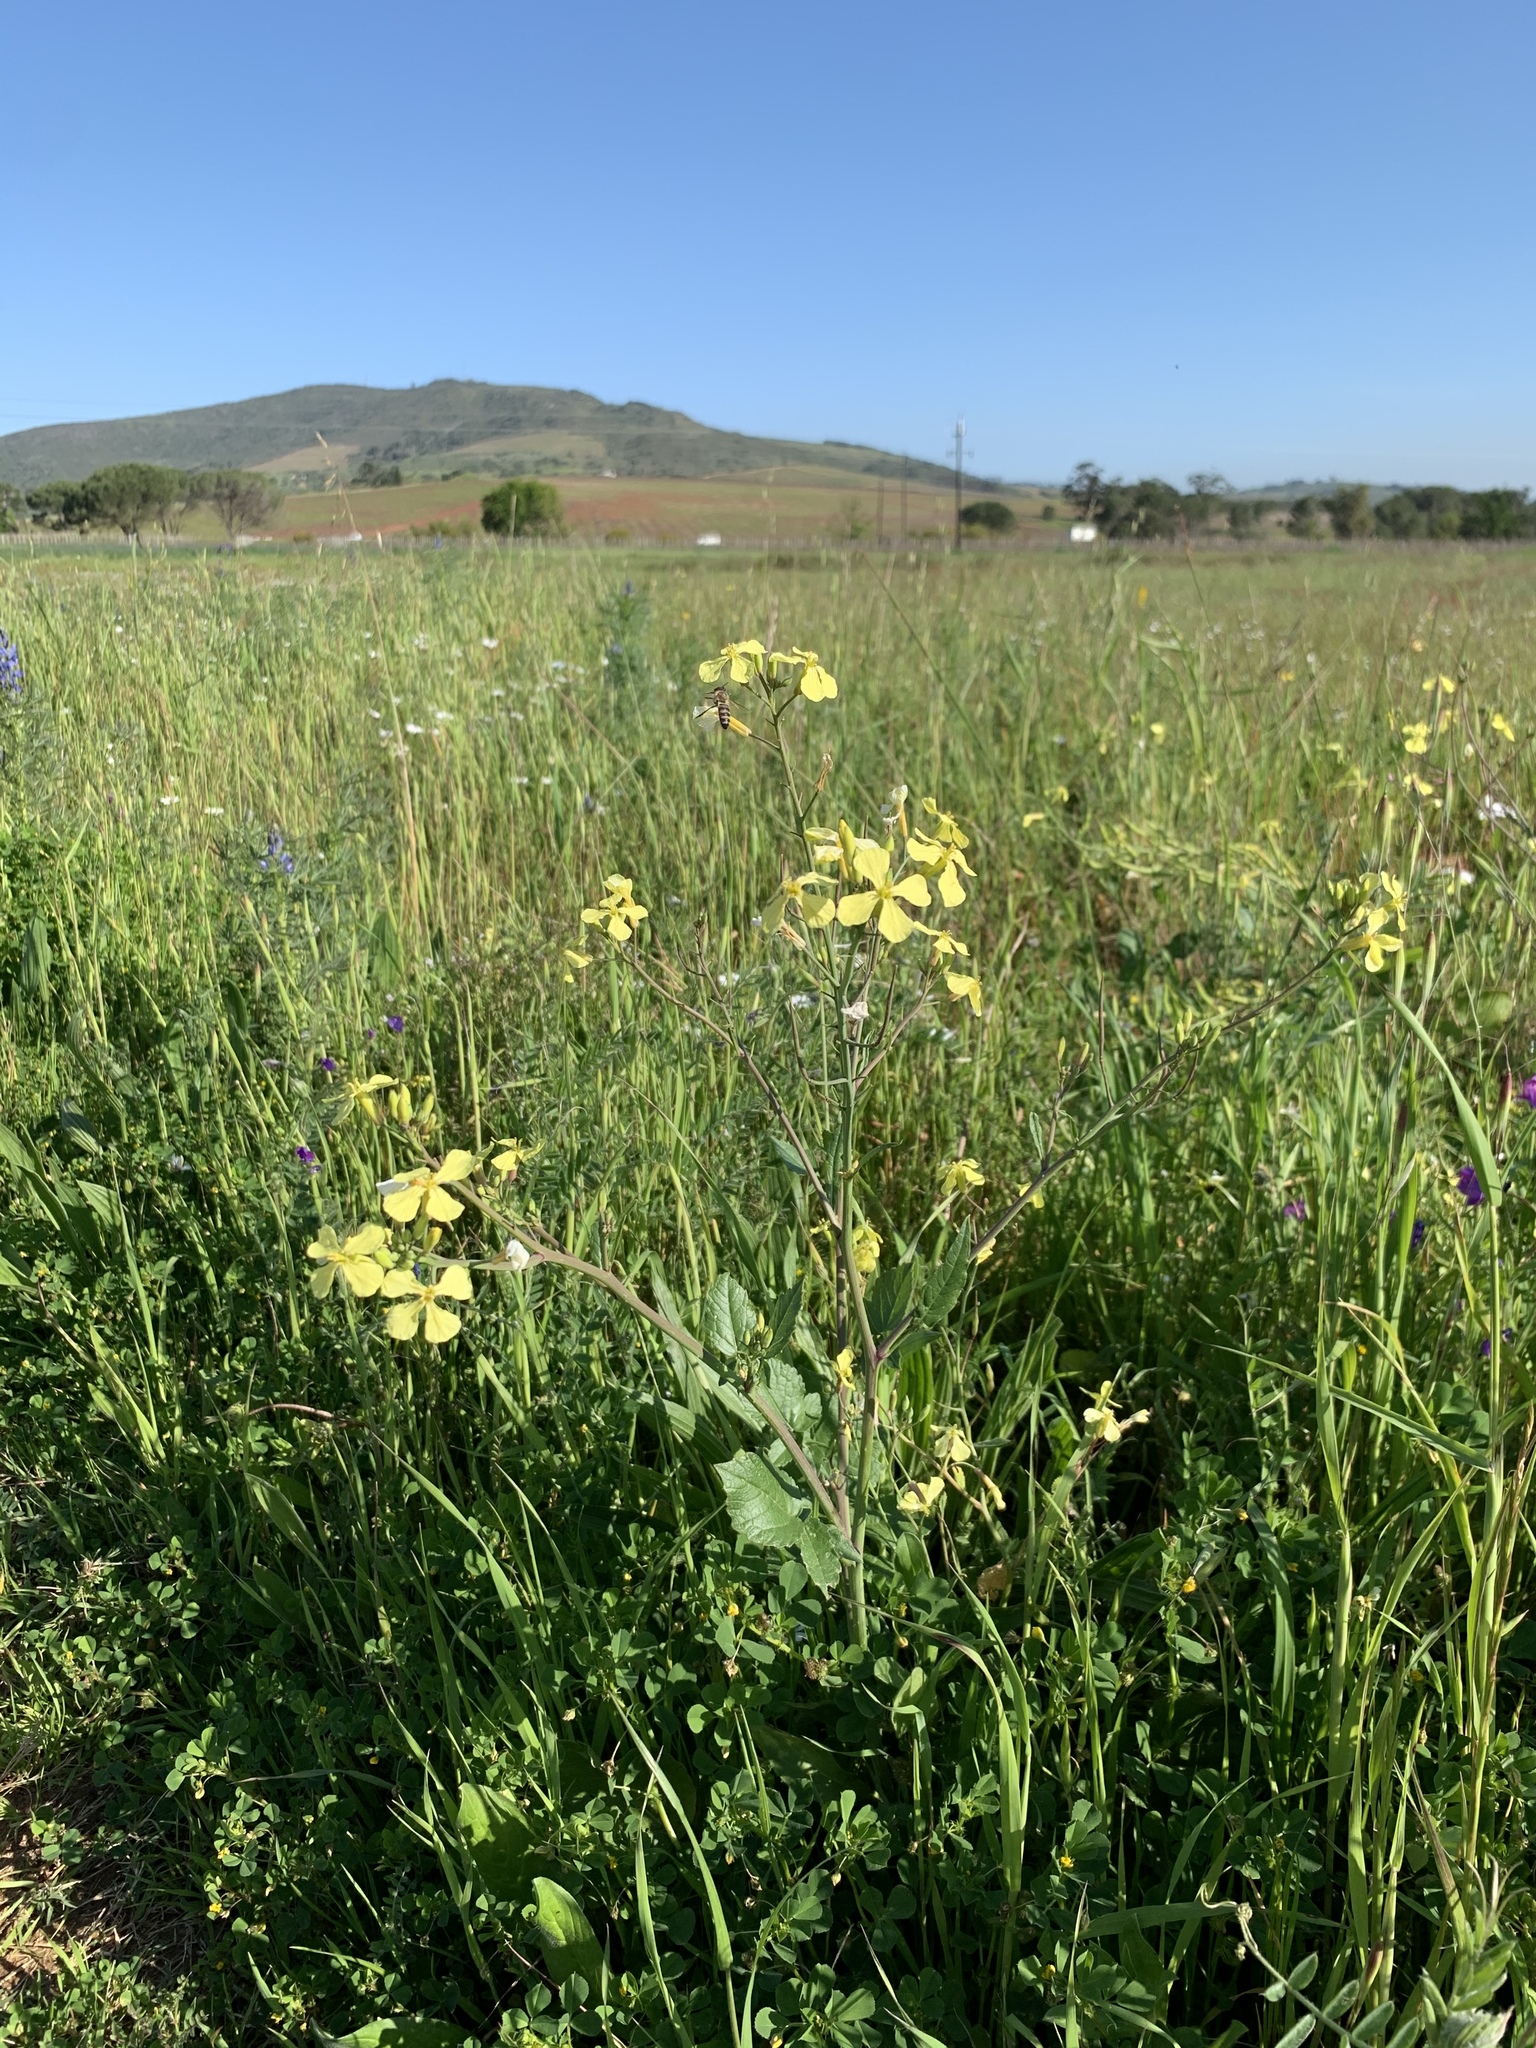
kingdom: Plantae
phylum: Tracheophyta
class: Magnoliopsida
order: Brassicales
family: Brassicaceae
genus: Raphanus
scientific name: Raphanus raphanistrum
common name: Wild radish
